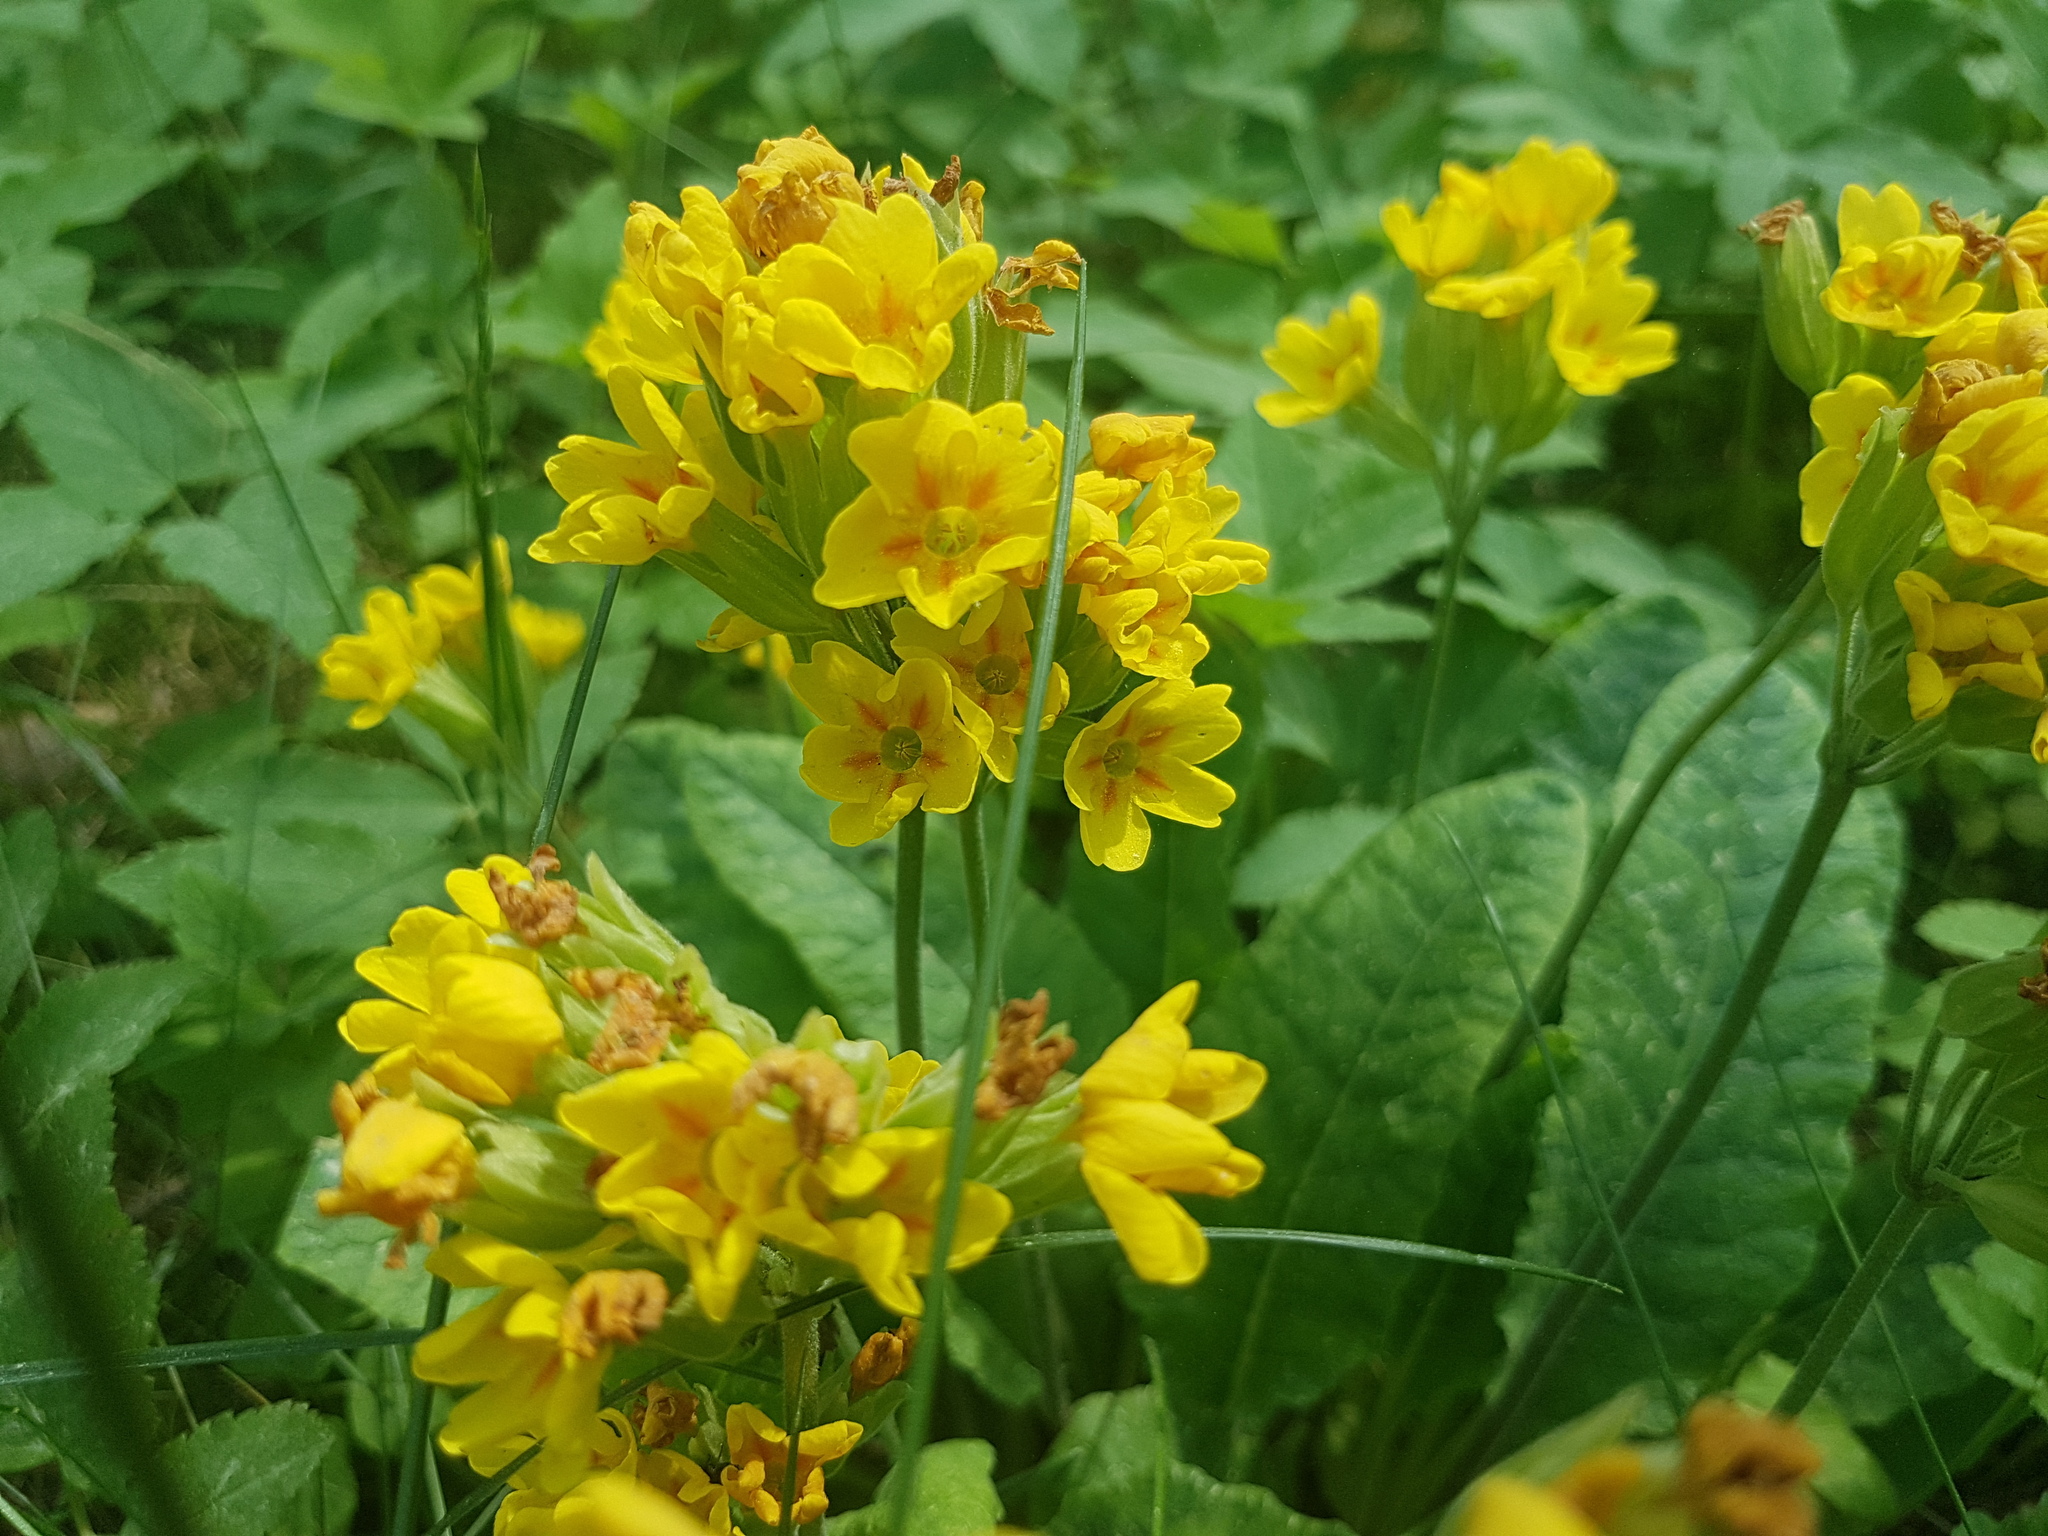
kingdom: Plantae
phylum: Tracheophyta
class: Magnoliopsida
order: Ericales
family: Primulaceae
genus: Primula
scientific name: Primula veris
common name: Cowslip
